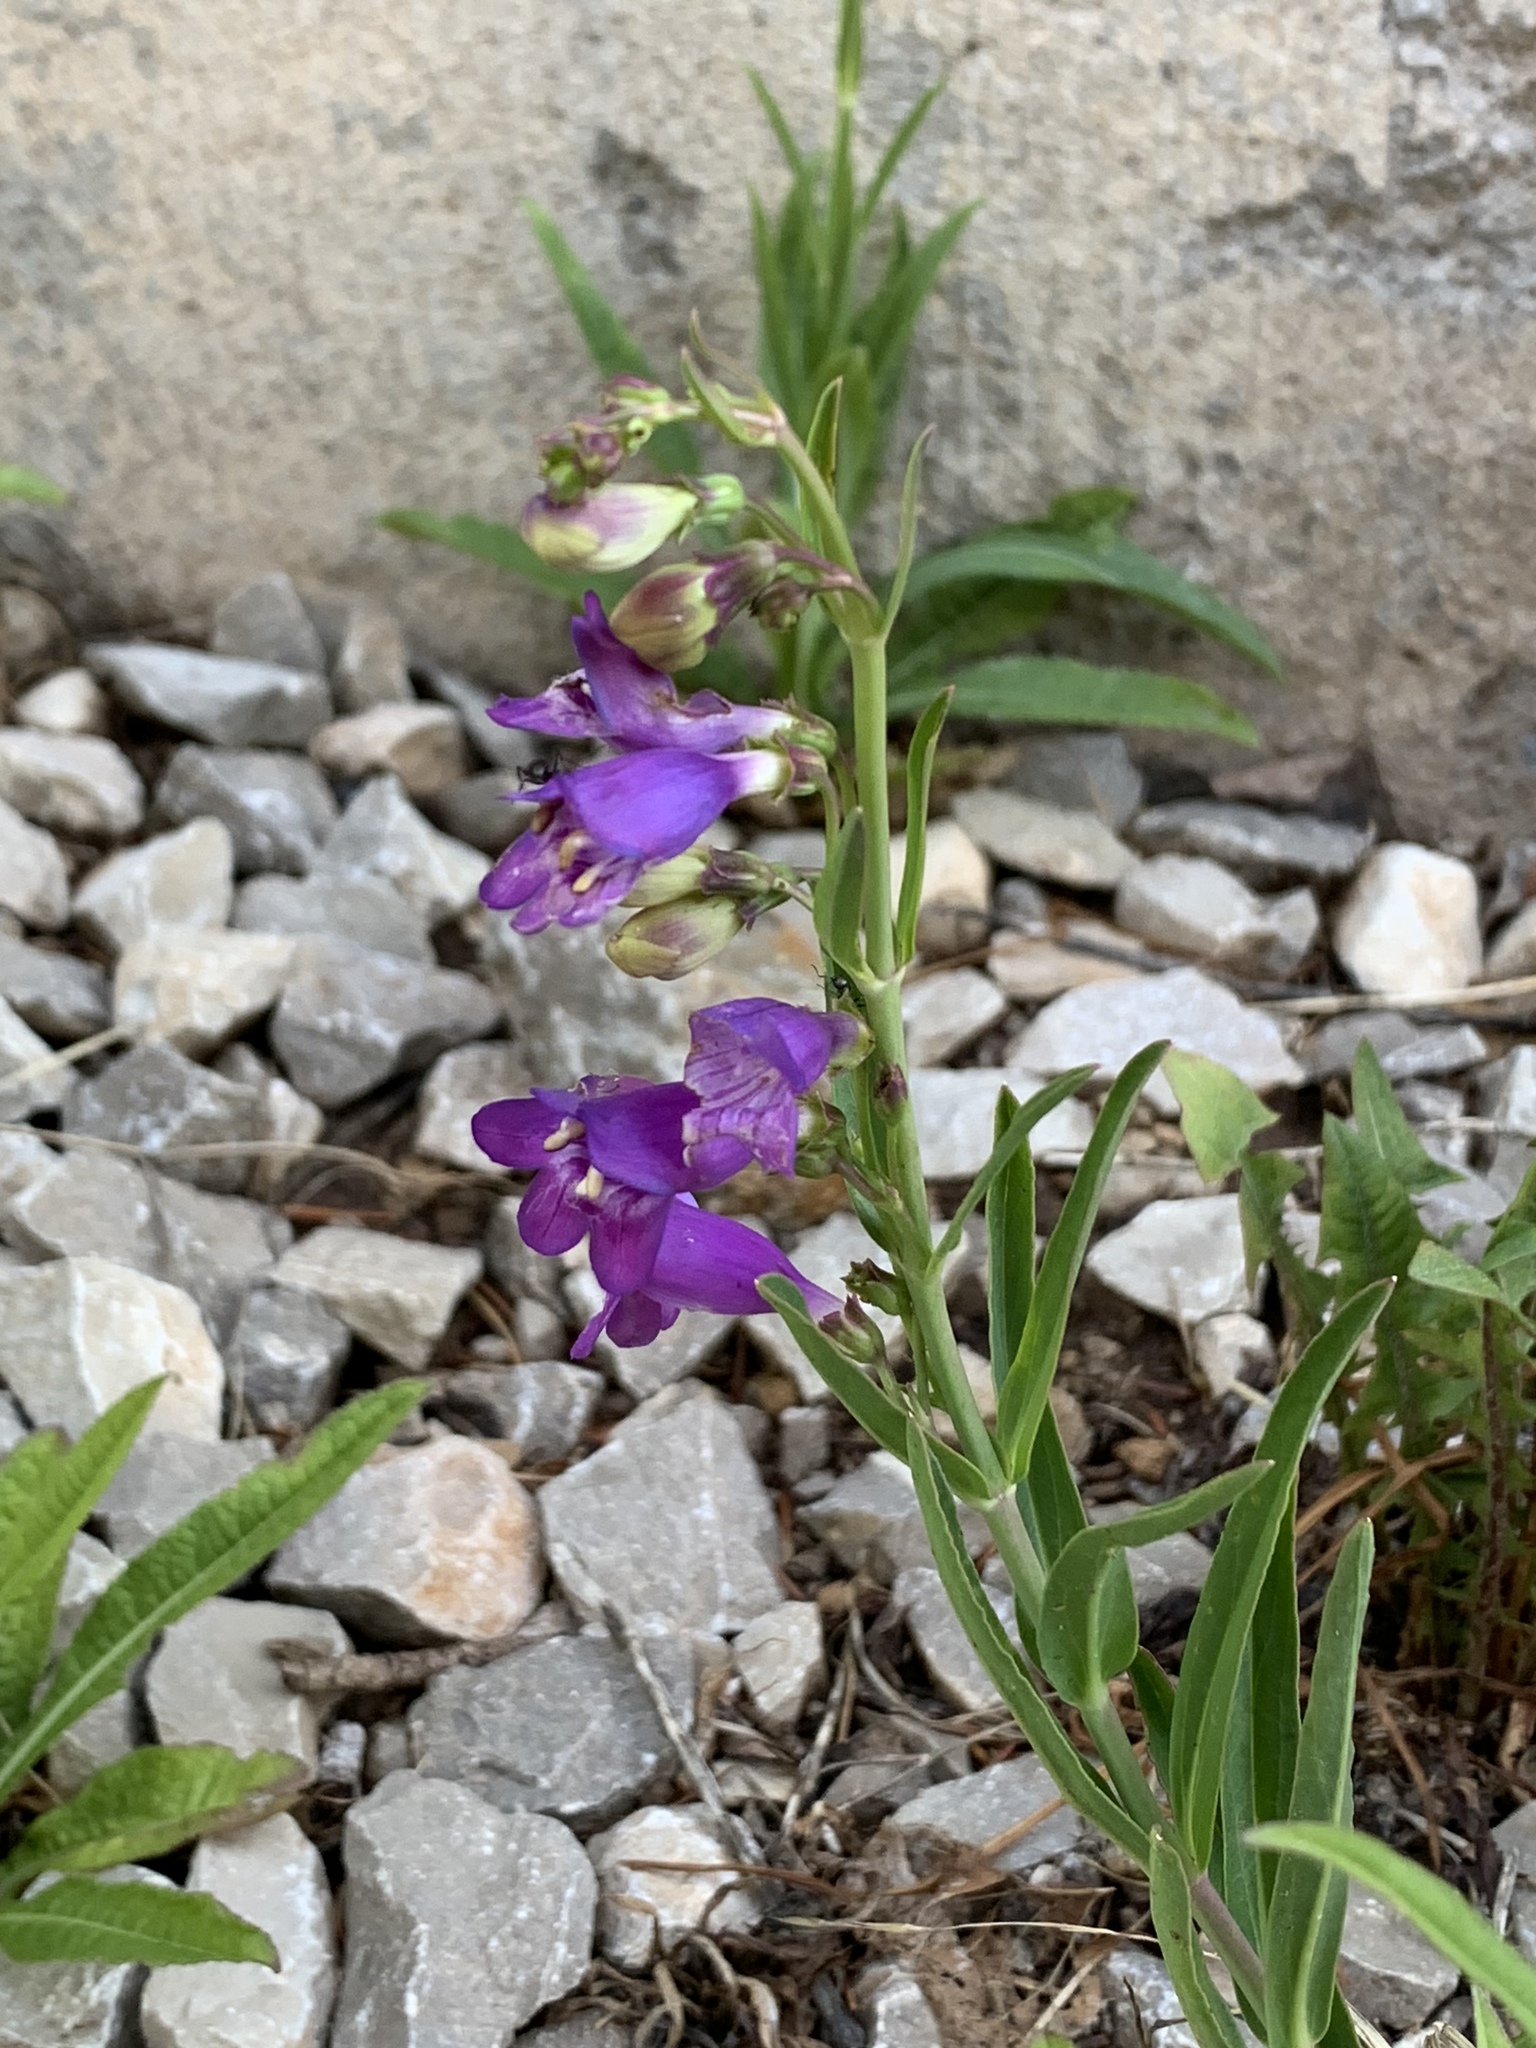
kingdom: Plantae
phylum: Tracheophyta
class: Magnoliopsida
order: Lamiales
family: Plantaginaceae
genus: Penstemon
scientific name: Penstemon neomexicanus
